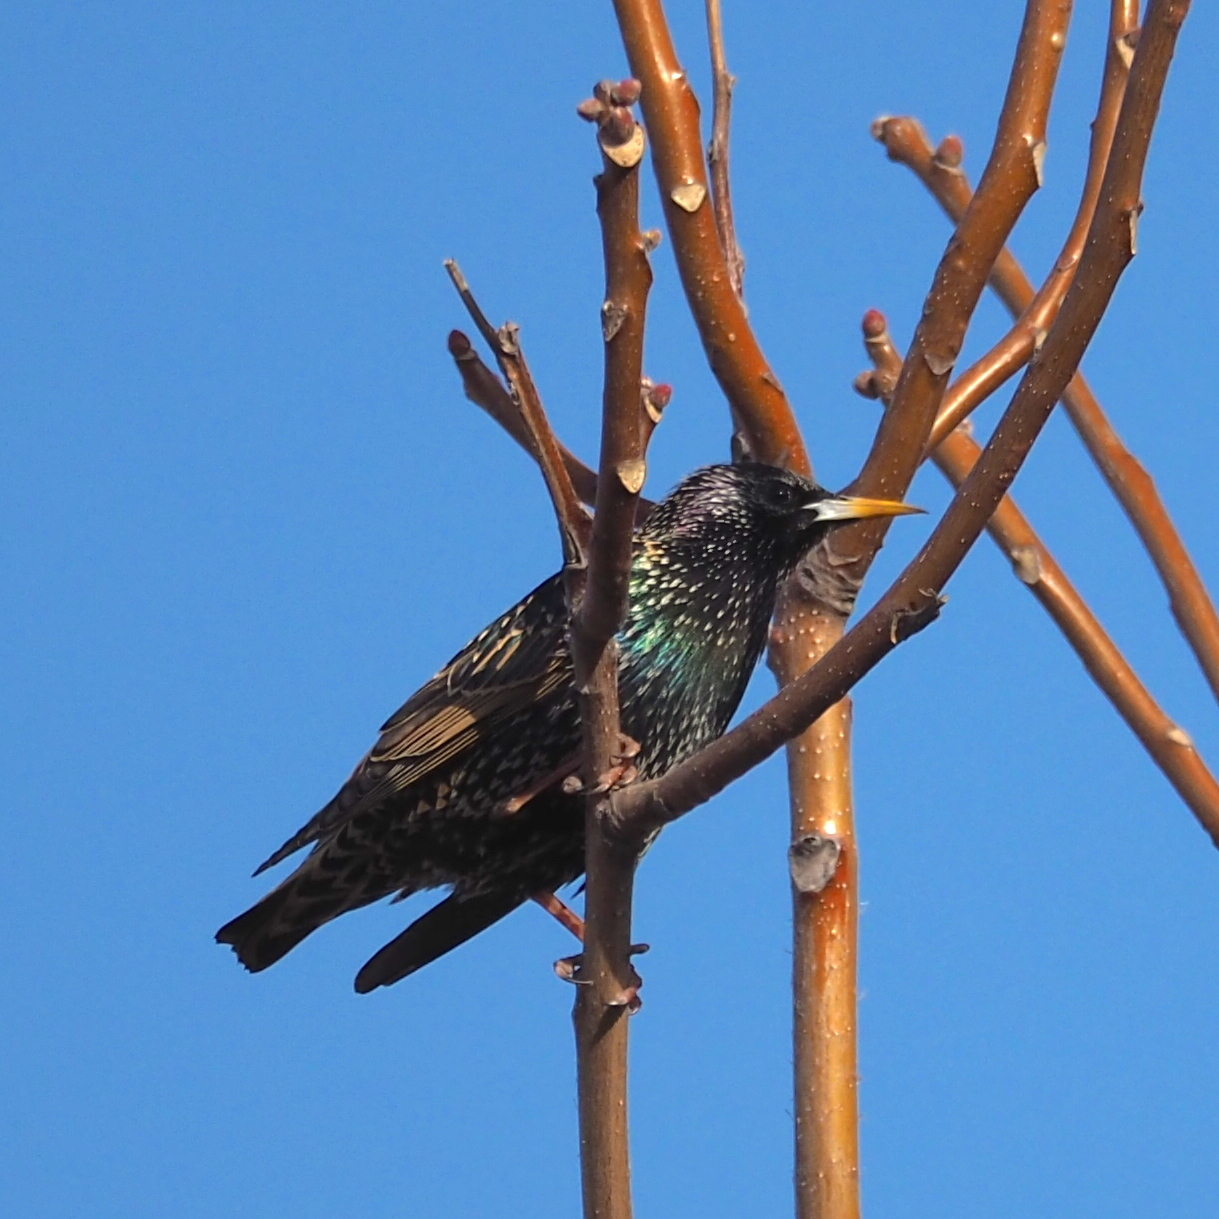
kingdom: Animalia
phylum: Chordata
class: Aves
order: Passeriformes
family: Sturnidae
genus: Sturnus
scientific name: Sturnus vulgaris
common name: Common starling
